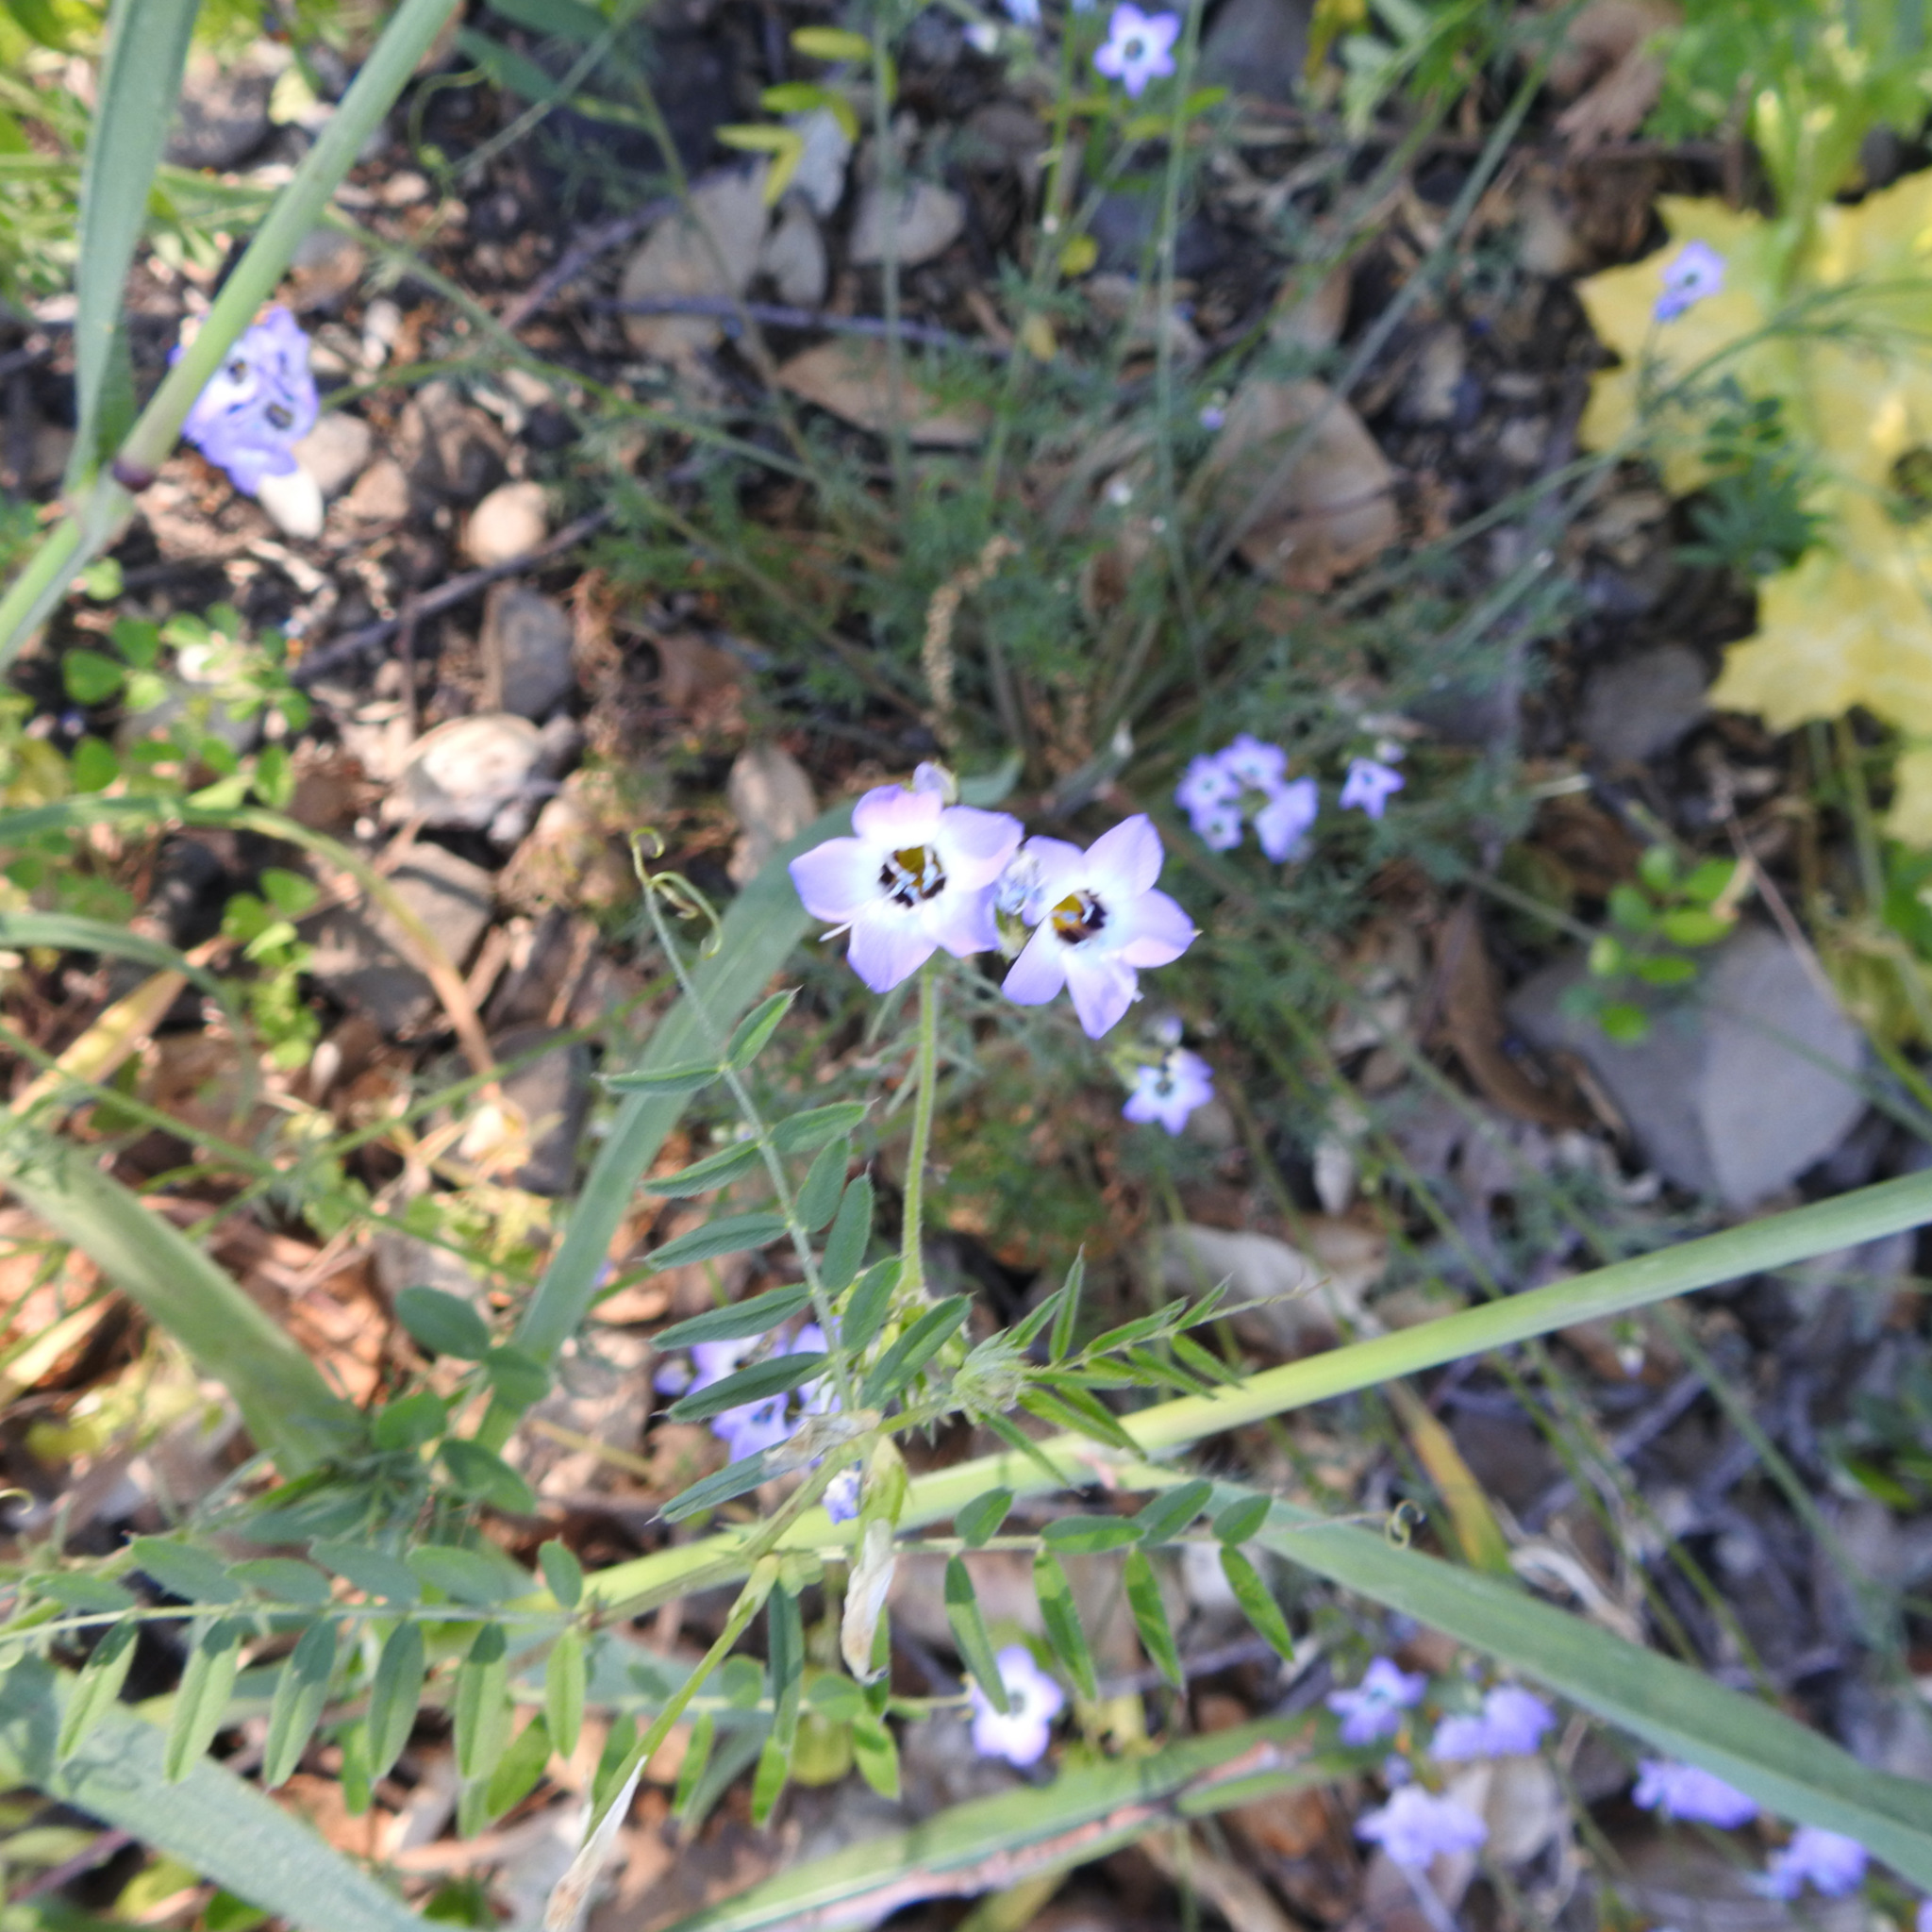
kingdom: Plantae
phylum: Tracheophyta
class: Magnoliopsida
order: Ericales
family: Polemoniaceae
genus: Gilia
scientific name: Gilia tricolor
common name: Bird's-eyes
